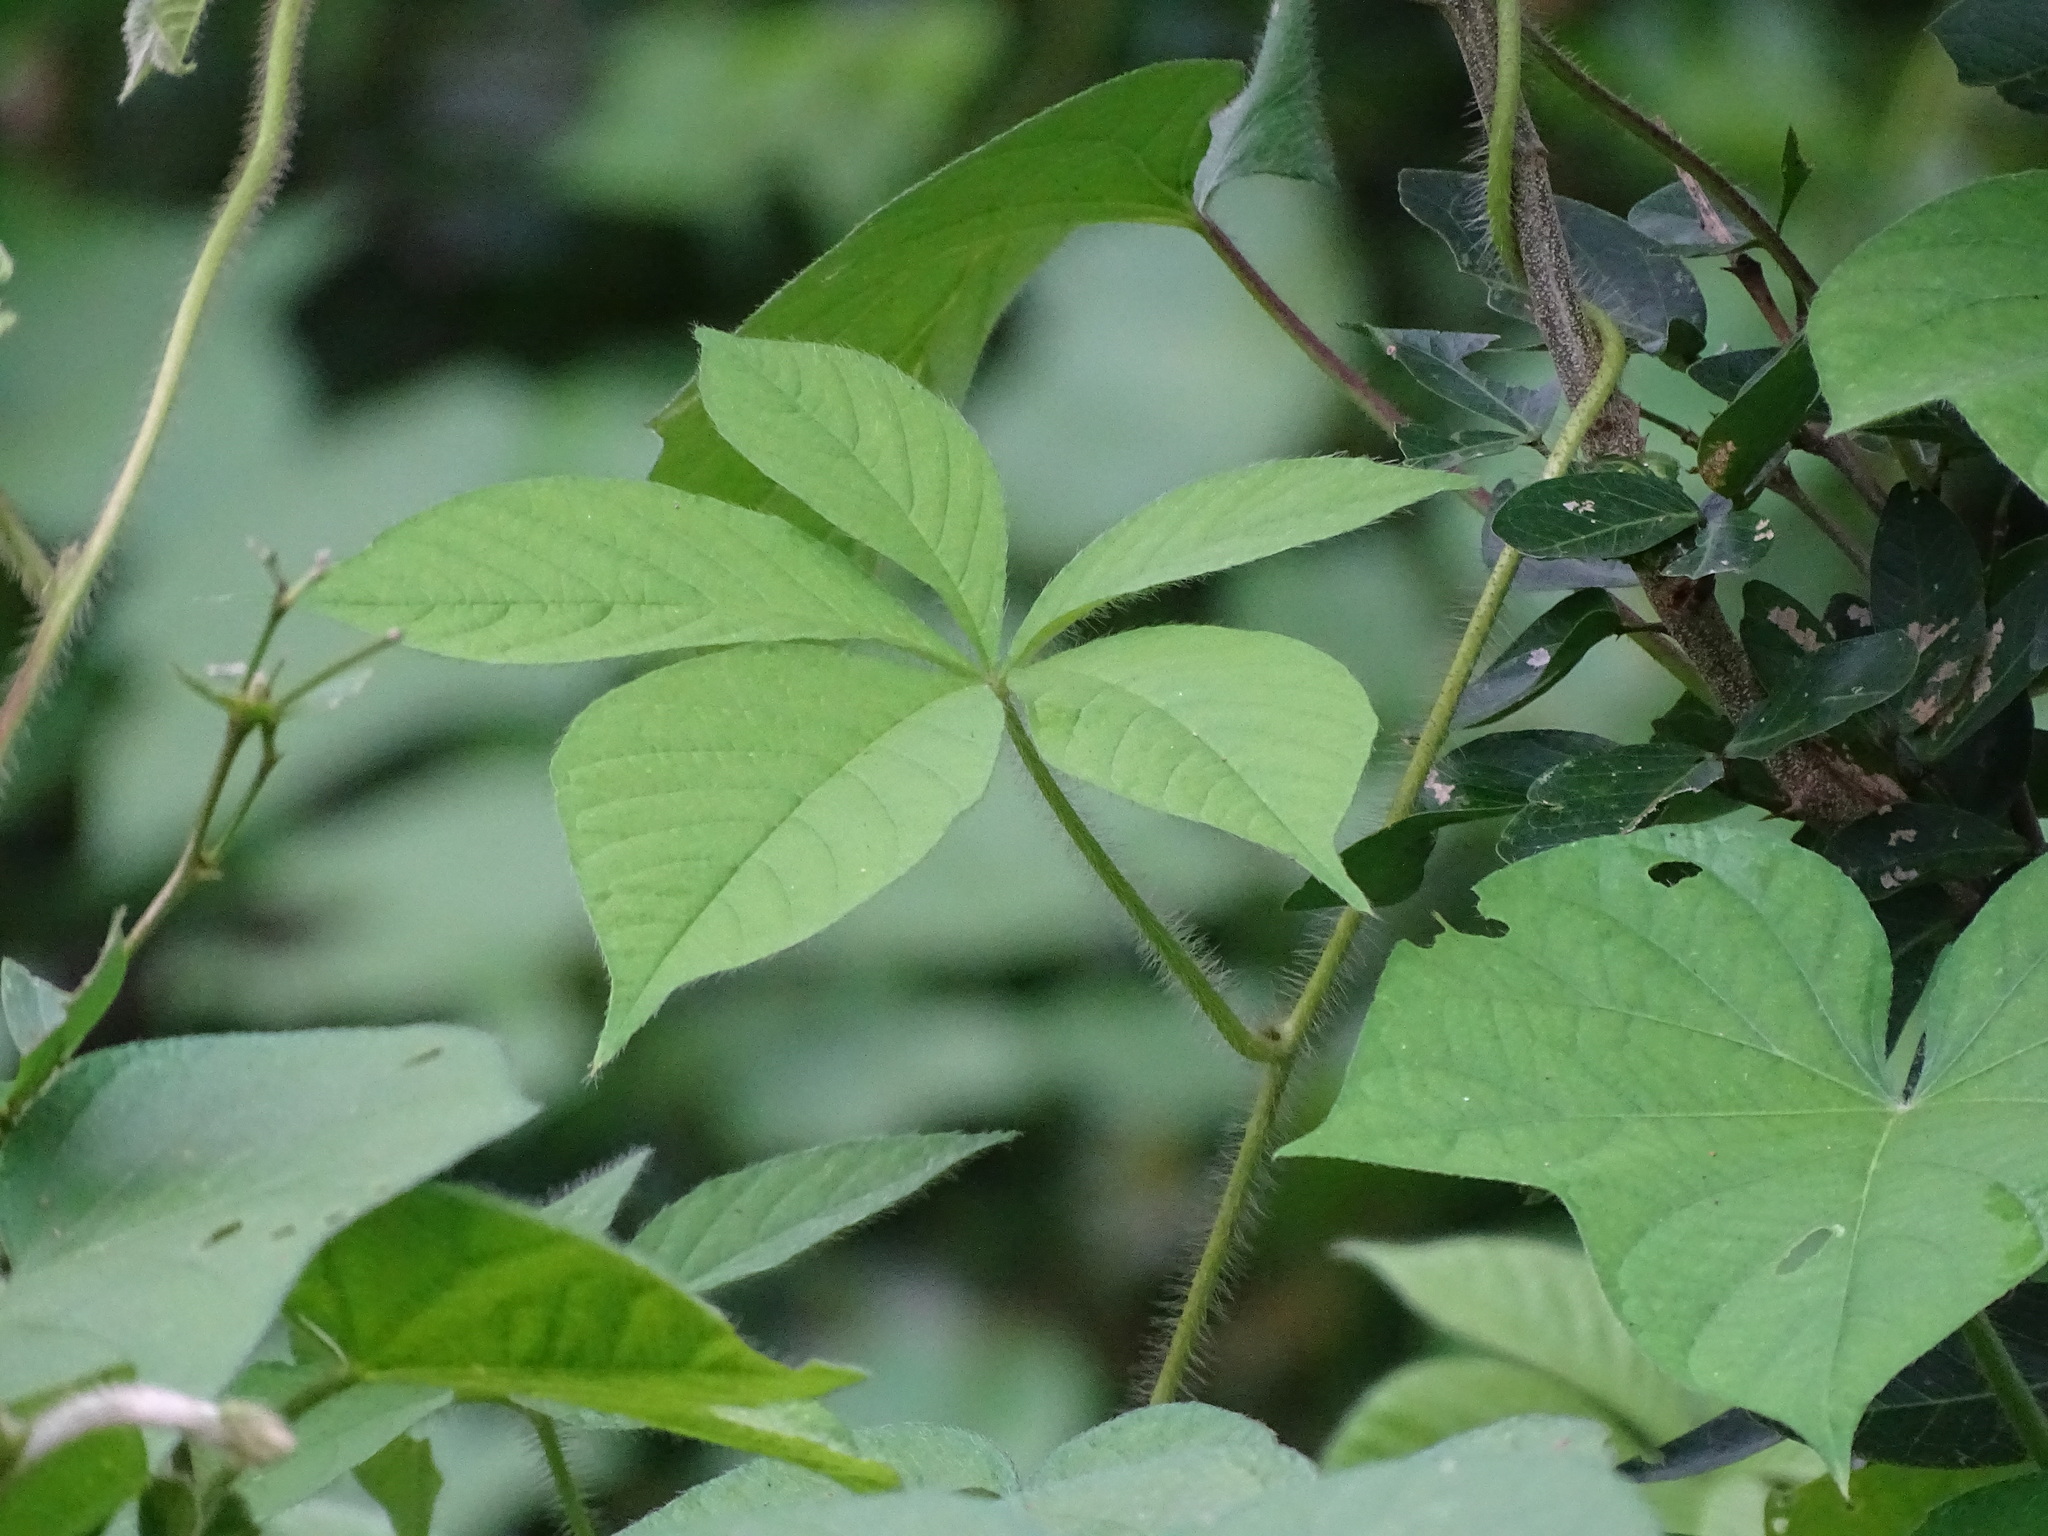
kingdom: Plantae
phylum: Tracheophyta
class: Magnoliopsida
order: Solanales
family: Convolvulaceae
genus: Distimake
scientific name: Distimake aegyptius
